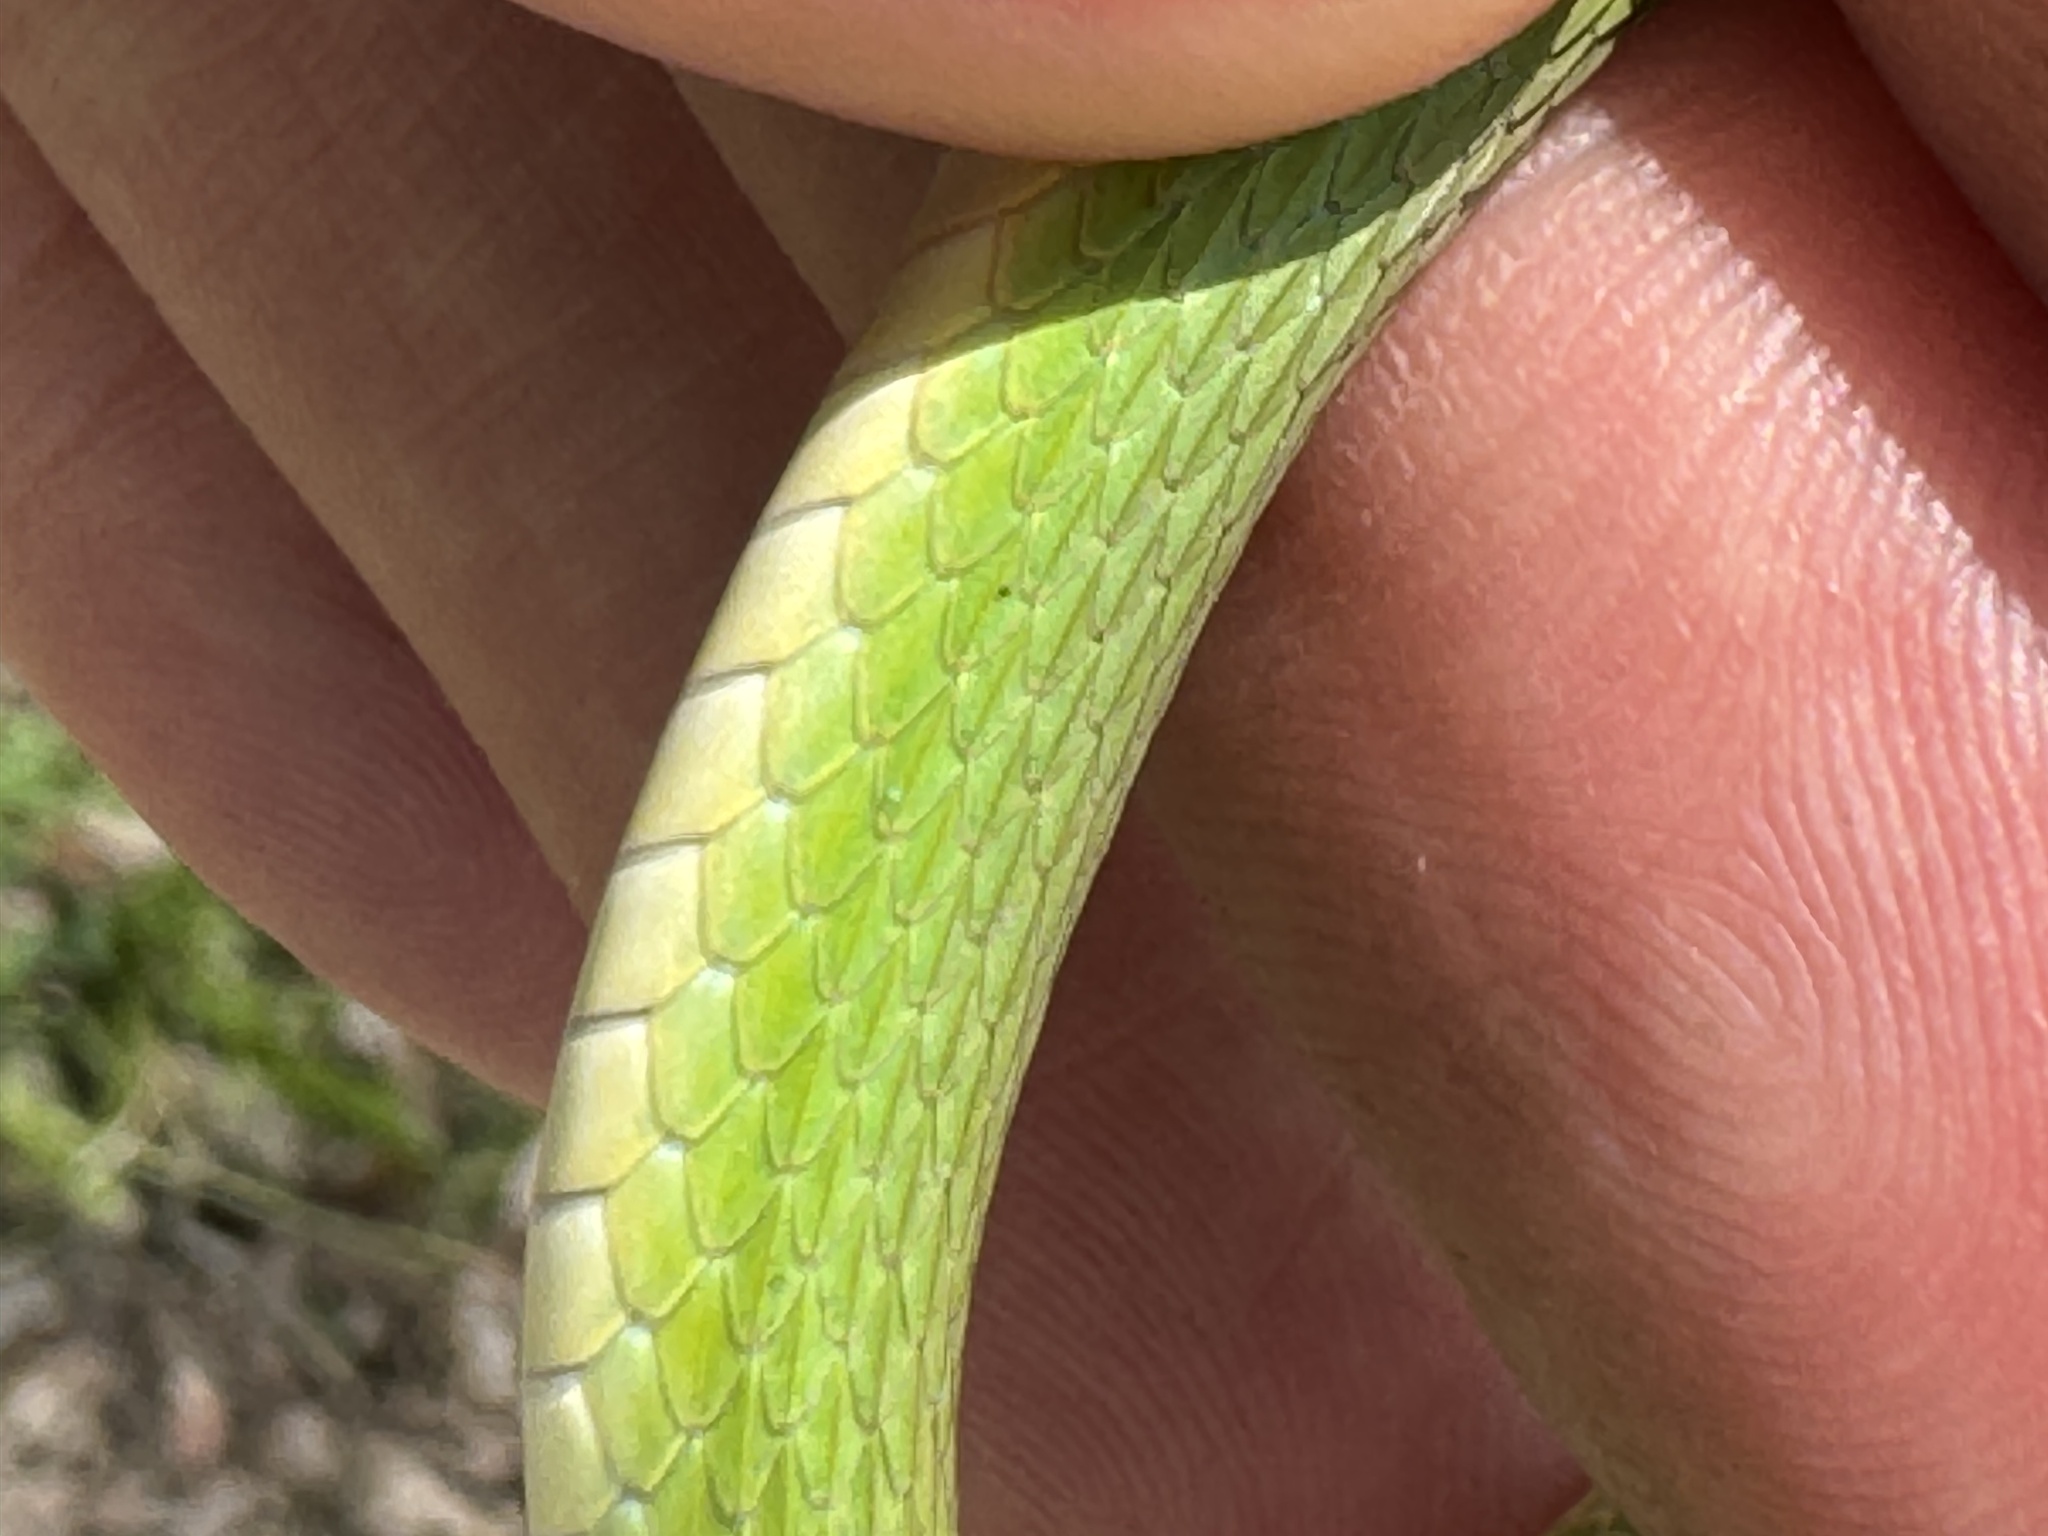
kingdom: Animalia
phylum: Chordata
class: Squamata
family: Colubridae
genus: Opheodrys
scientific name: Opheodrys aestivus
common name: Rough greensnake
